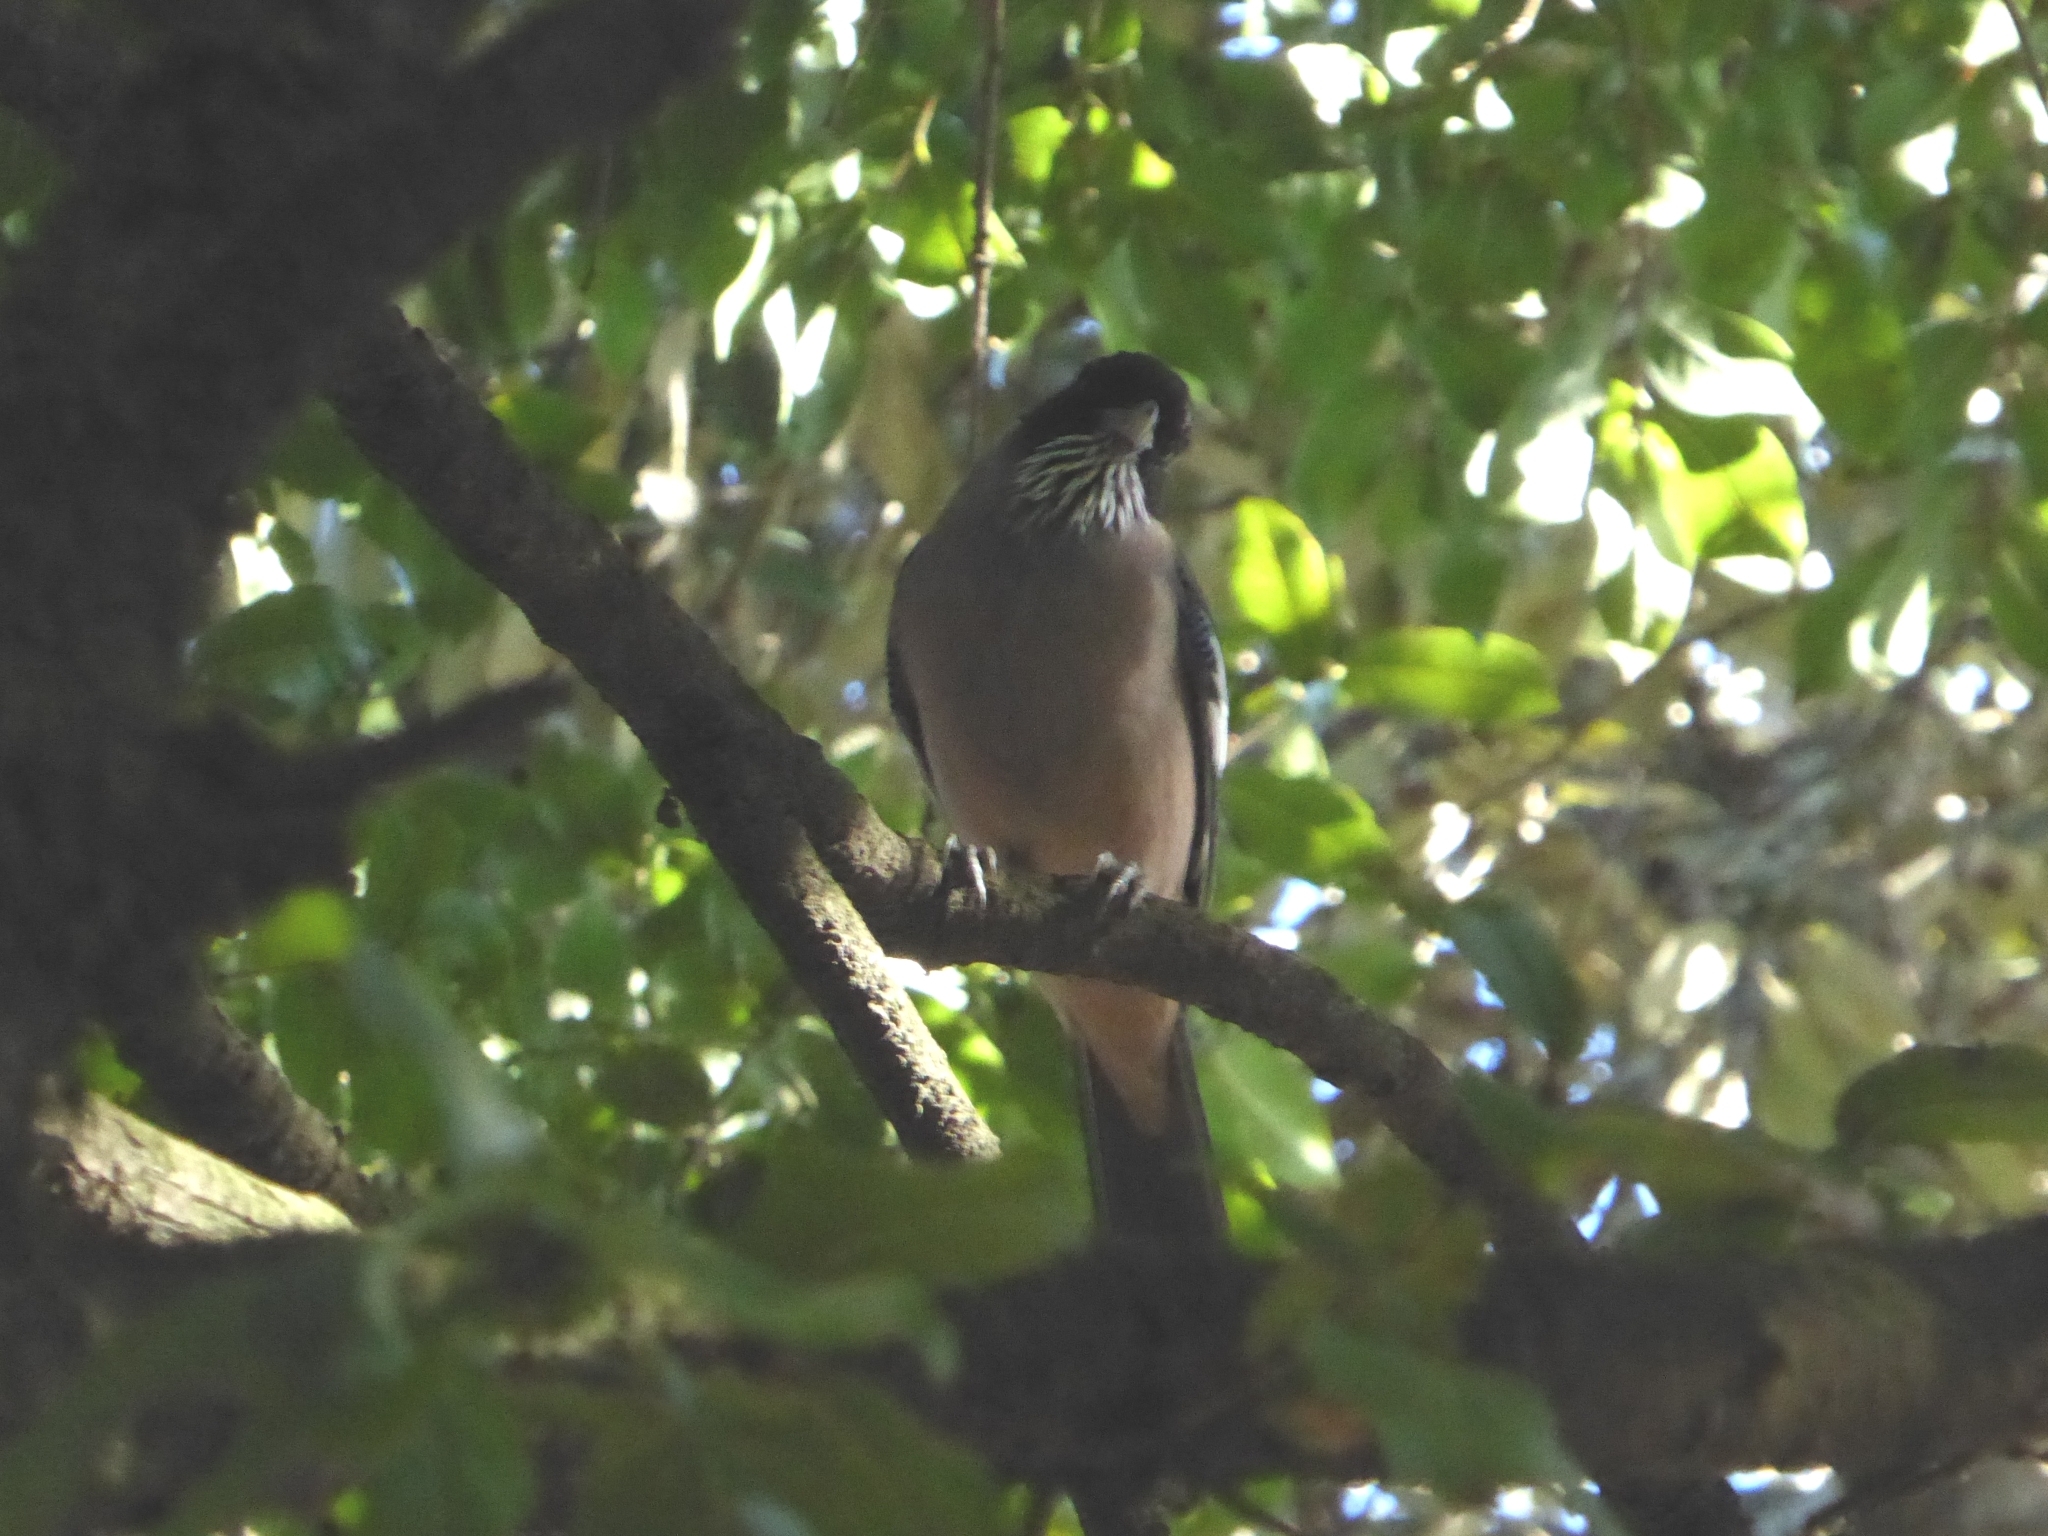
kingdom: Animalia
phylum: Chordata
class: Aves
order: Passeriformes
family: Corvidae
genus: Garrulus
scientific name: Garrulus lanceolatus
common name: Black-headed jay
